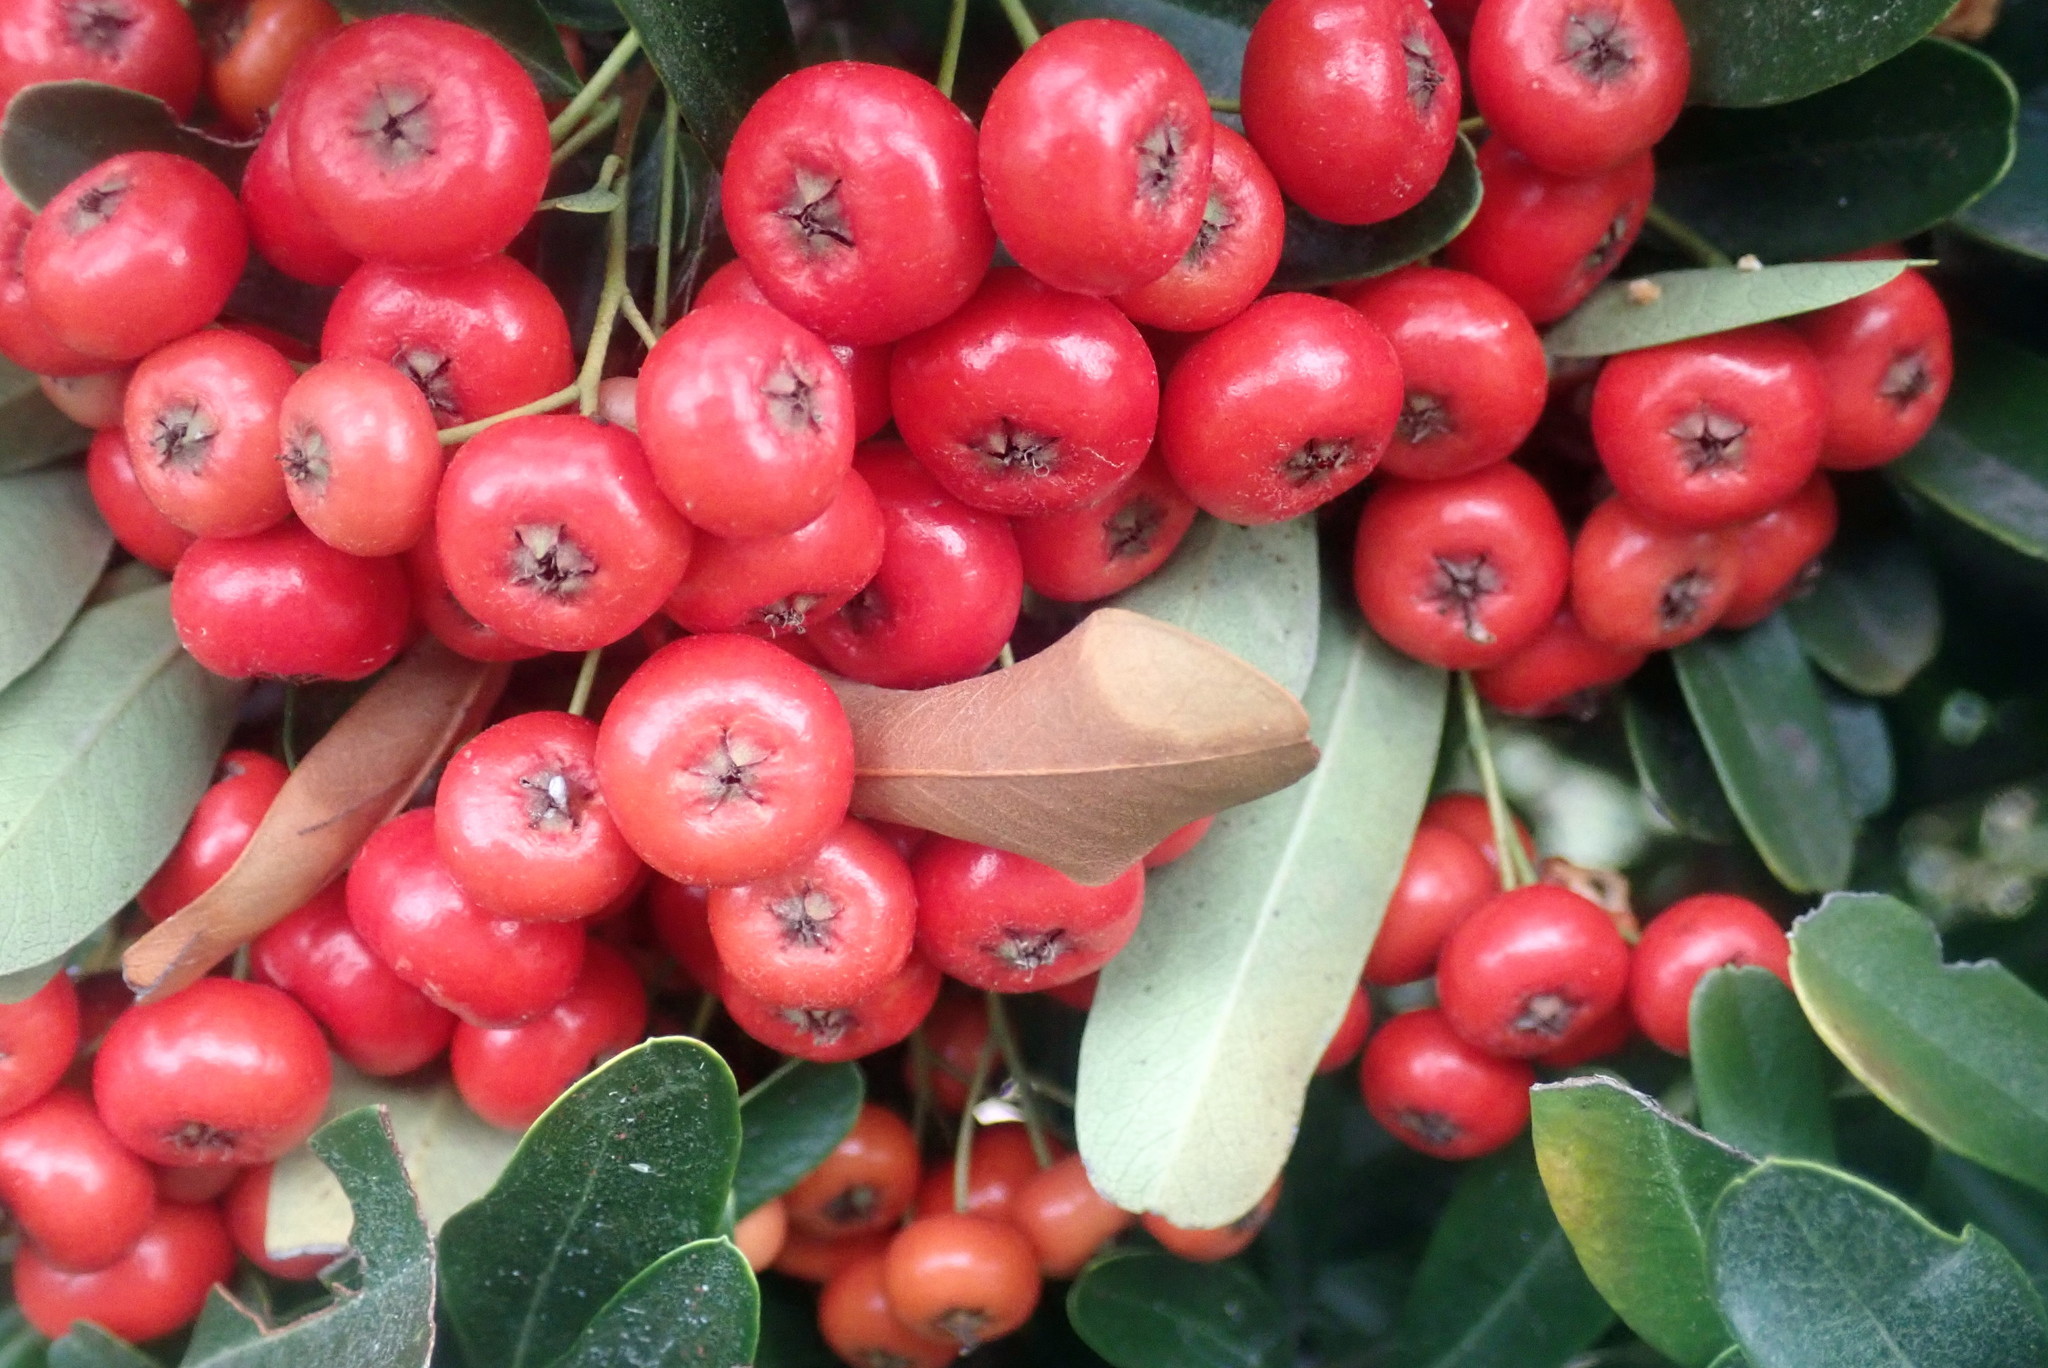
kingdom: Plantae
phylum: Tracheophyta
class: Magnoliopsida
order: Rosales
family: Rosaceae
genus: Cotoneaster
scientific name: Cotoneaster coriaceus
